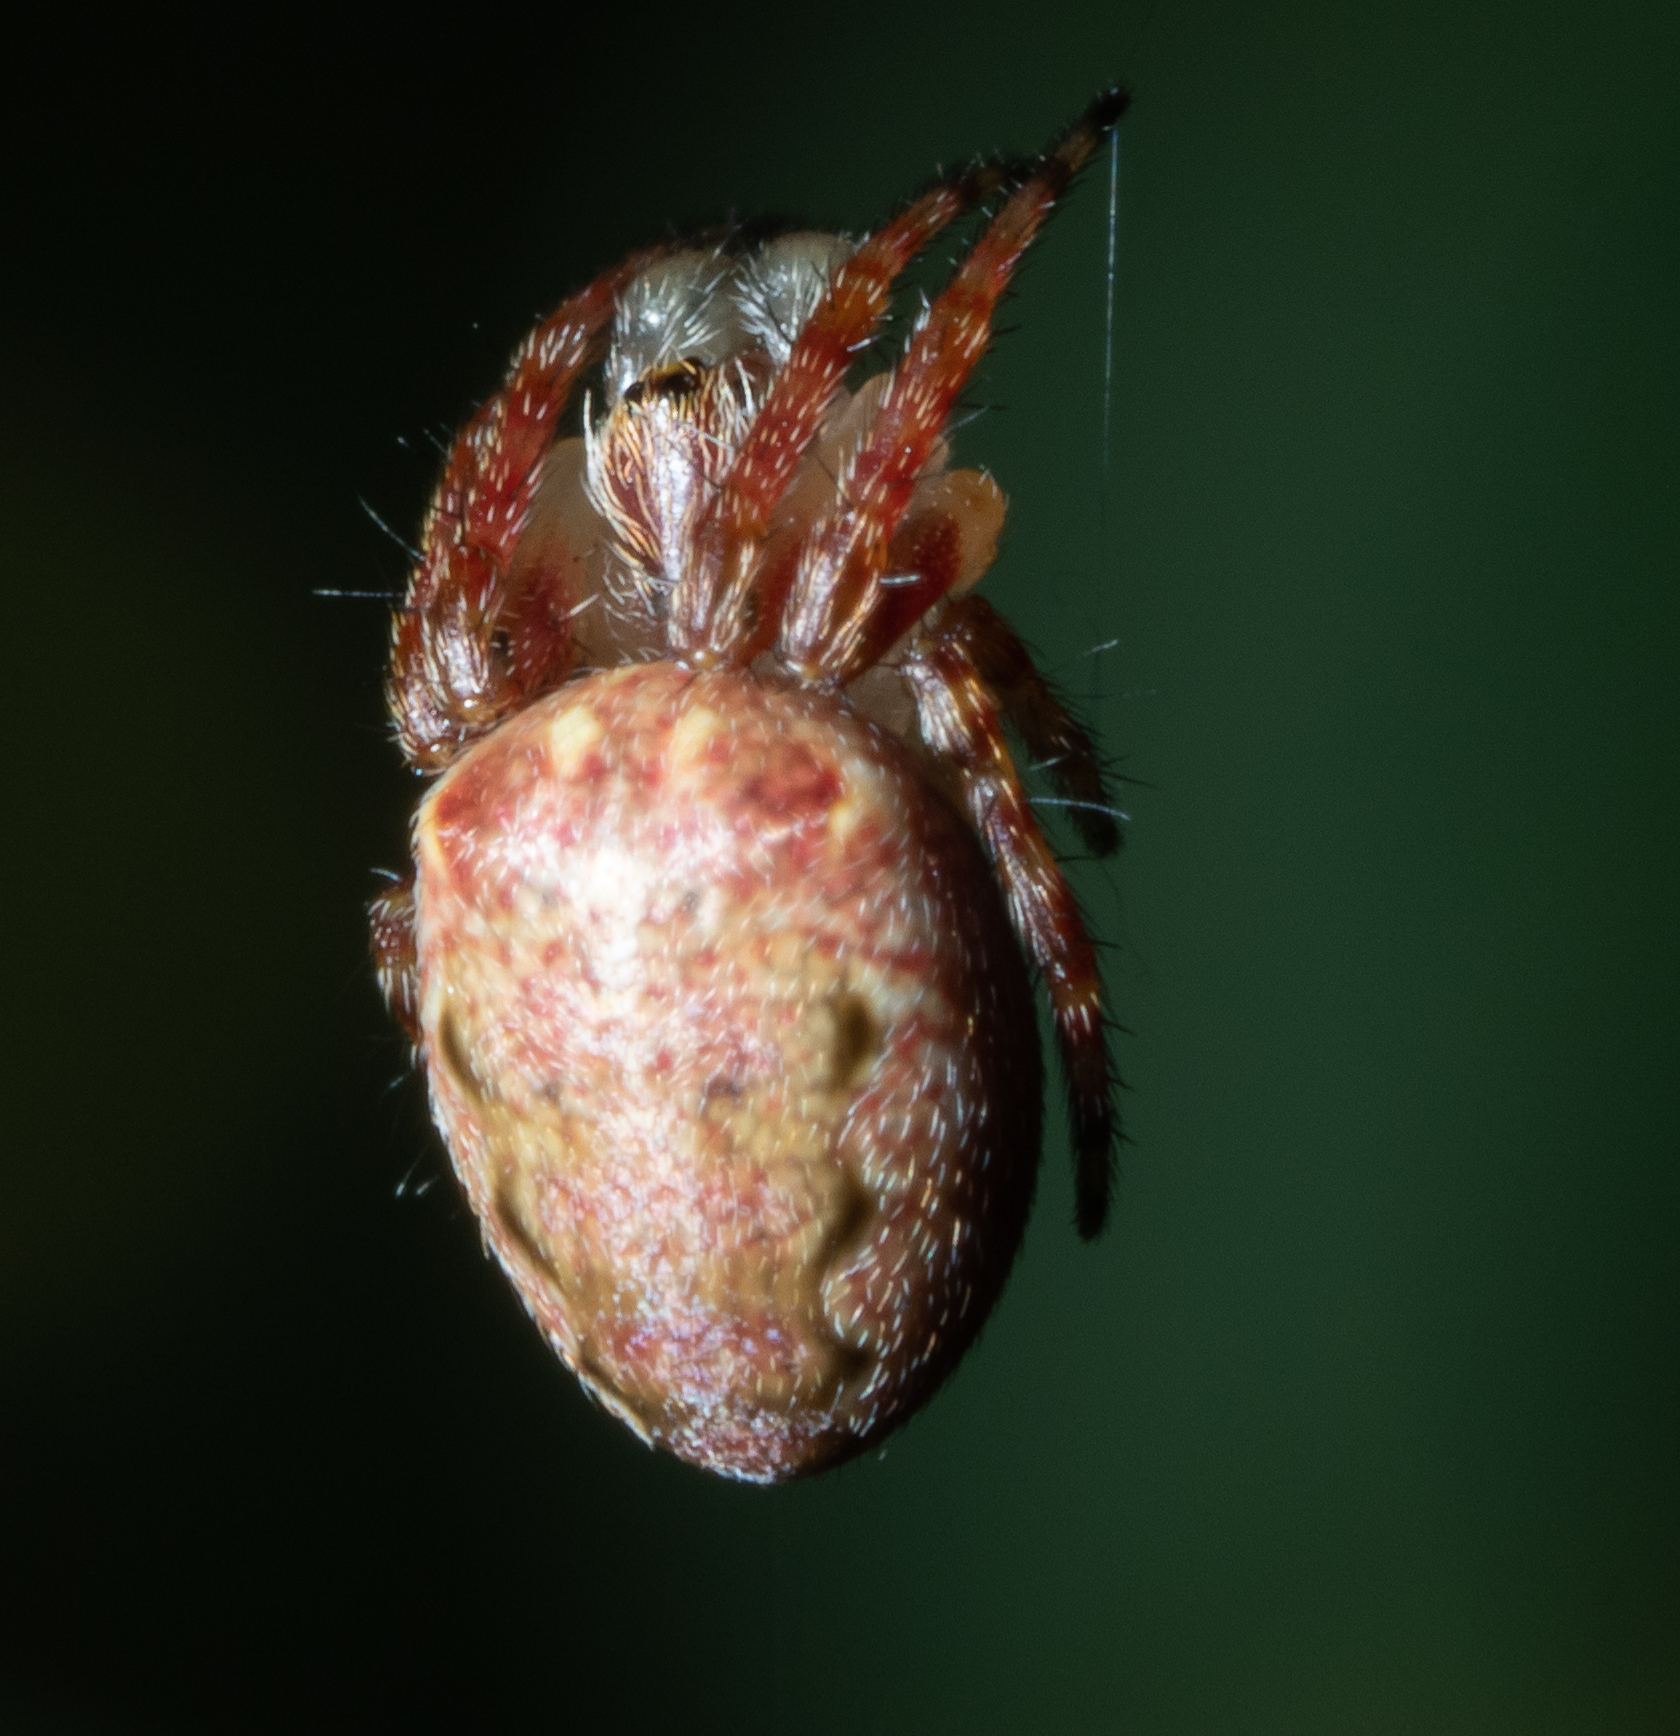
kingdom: Animalia
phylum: Arthropoda
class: Arachnida
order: Araneae
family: Araneidae
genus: Plebs
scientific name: Plebs eburnus
